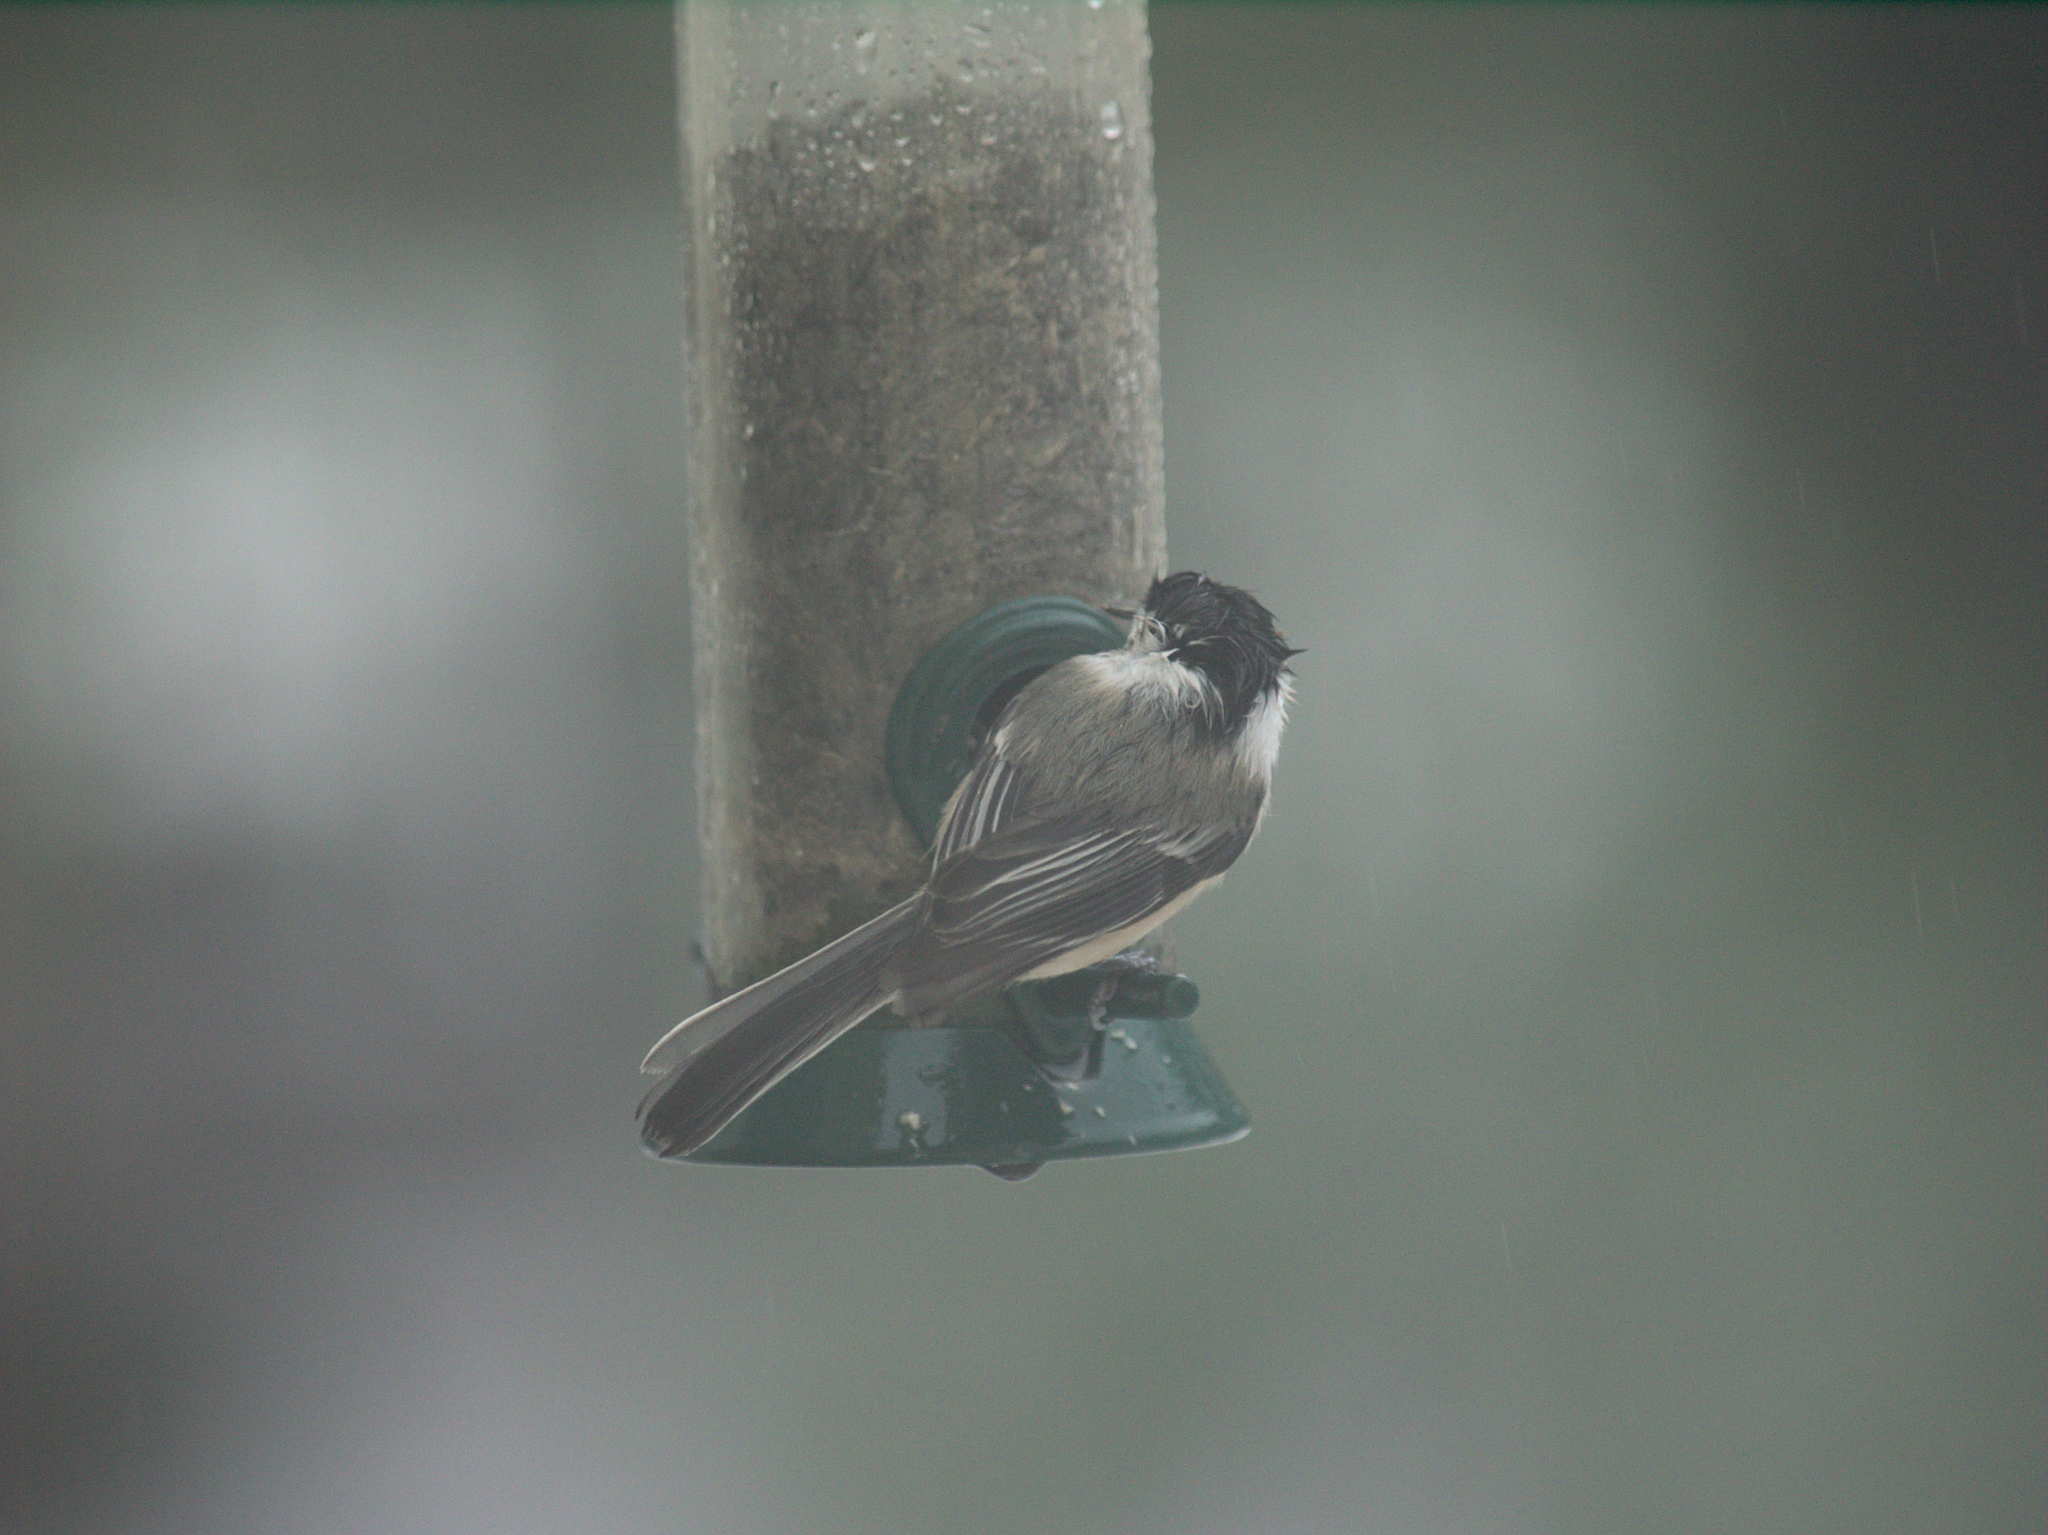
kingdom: Animalia
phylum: Chordata
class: Aves
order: Passeriformes
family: Paridae
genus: Poecile
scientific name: Poecile atricapillus
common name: Black-capped chickadee
